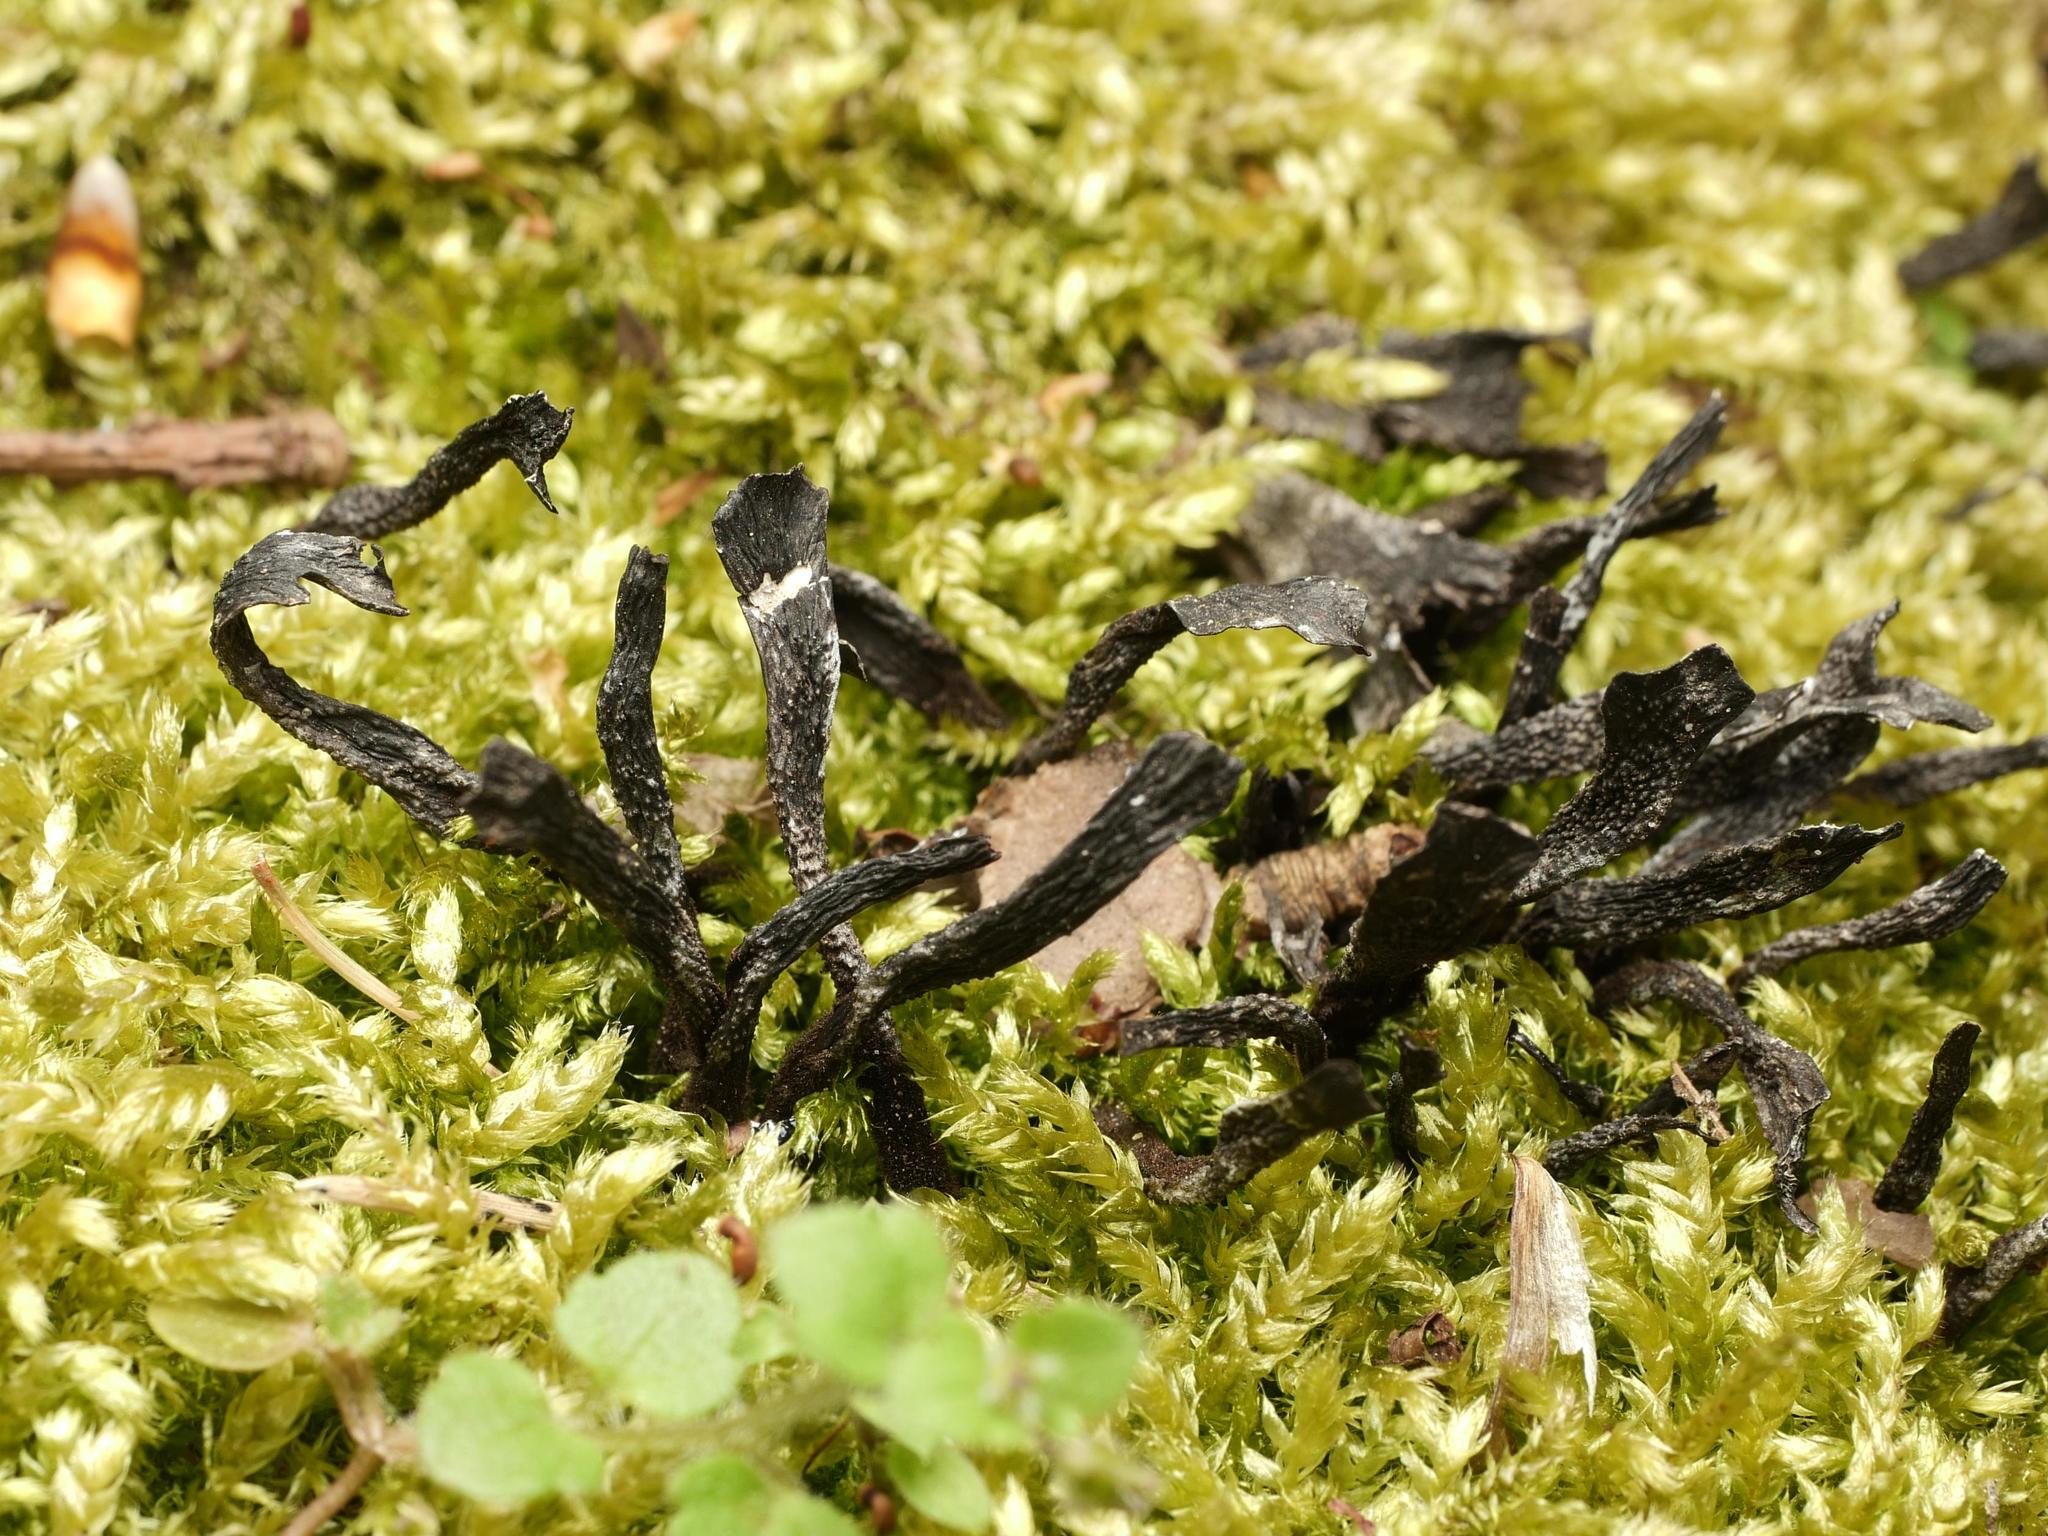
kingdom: Fungi
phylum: Ascomycota
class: Sordariomycetes
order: Xylariales
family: Xylariaceae
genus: Xylaria
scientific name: Xylaria hypoxylon
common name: Candle-snuff fungus
